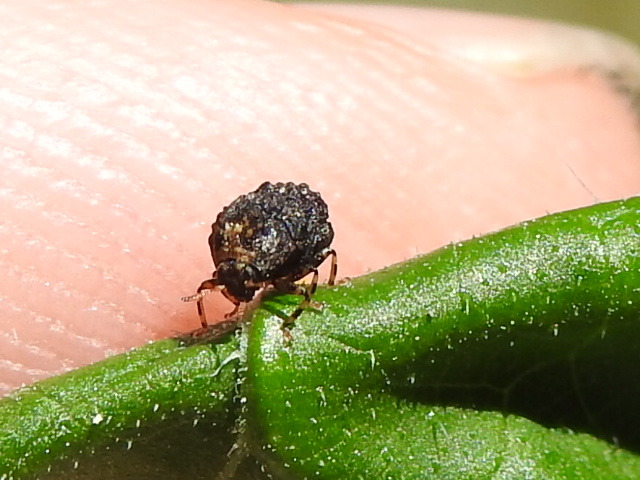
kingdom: Animalia
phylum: Arthropoda
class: Insecta
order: Coleoptera
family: Chrysomelidae
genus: Exema
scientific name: Exema dispar
